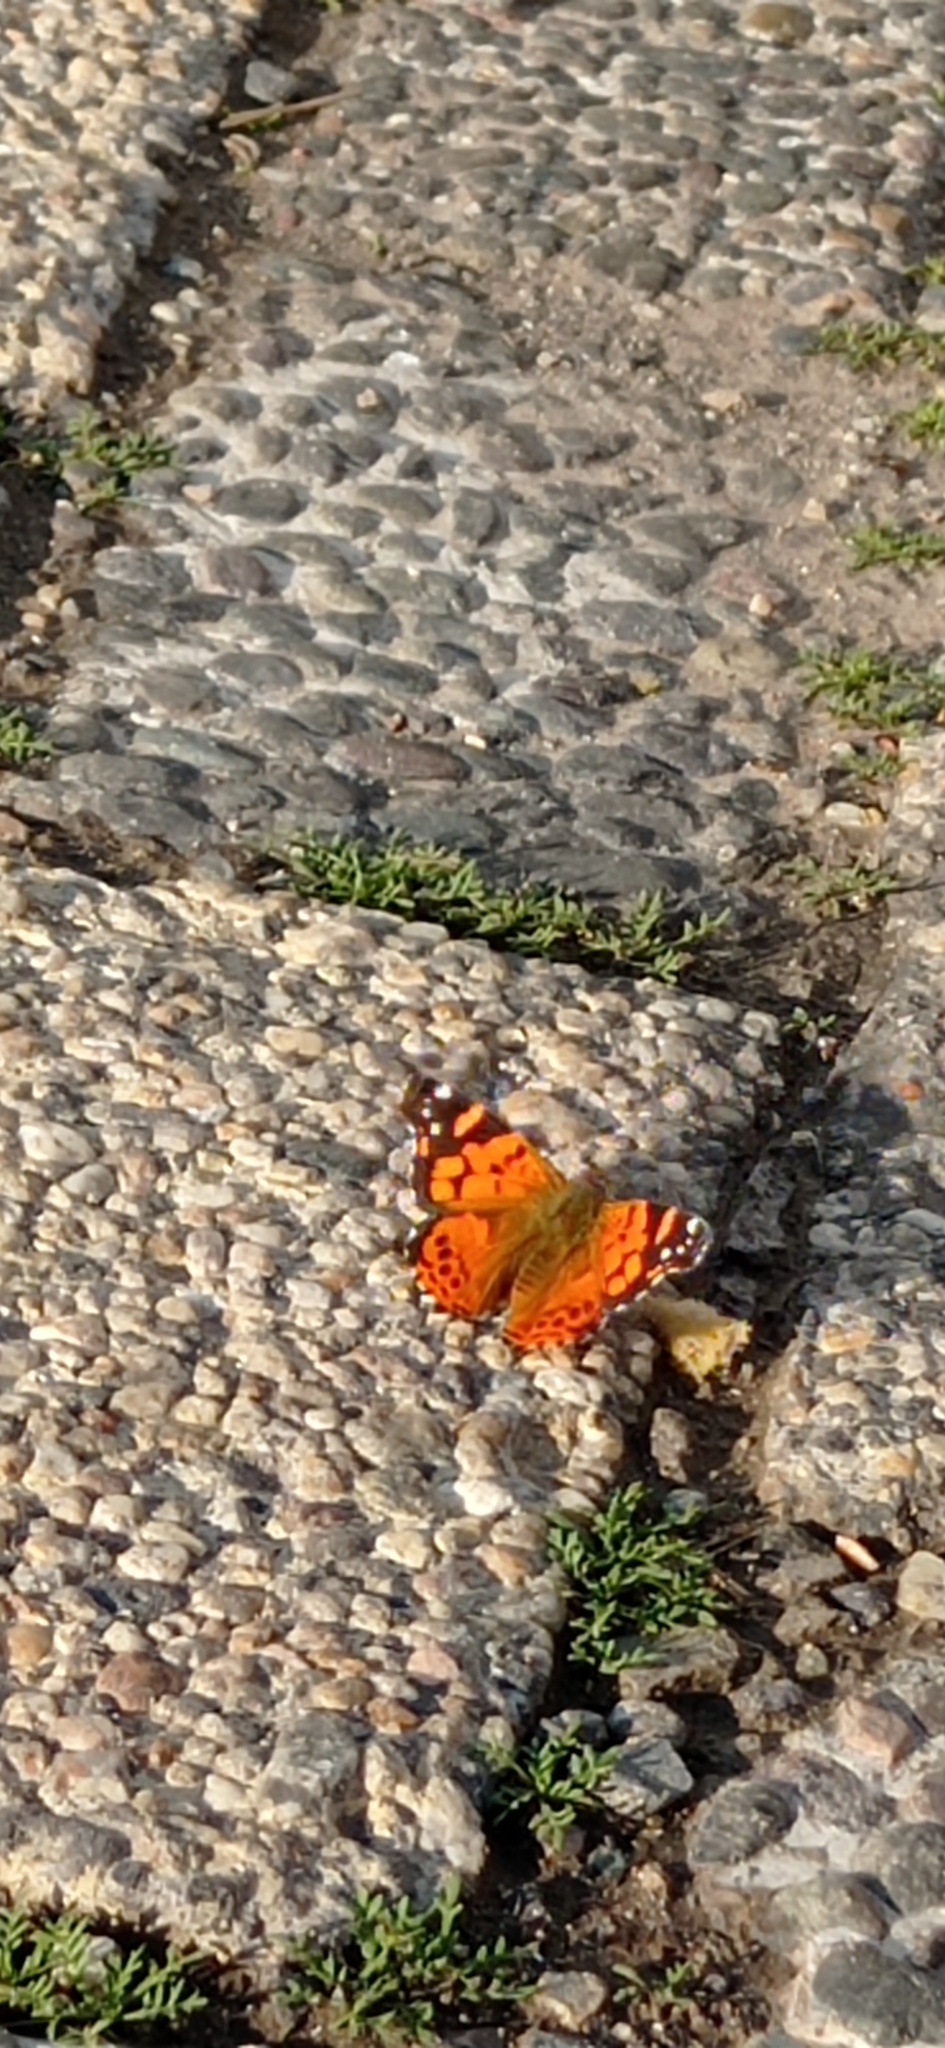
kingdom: Animalia
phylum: Arthropoda
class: Insecta
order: Lepidoptera
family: Nymphalidae
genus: Vanessa
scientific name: Vanessa carye
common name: Subtropical lady
